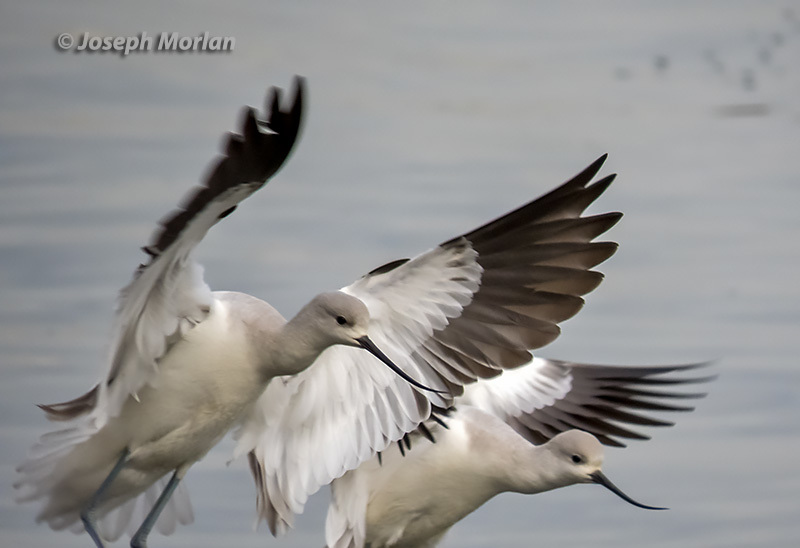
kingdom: Animalia
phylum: Chordata
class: Aves
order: Charadriiformes
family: Recurvirostridae
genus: Recurvirostra
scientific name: Recurvirostra americana
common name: American avocet
